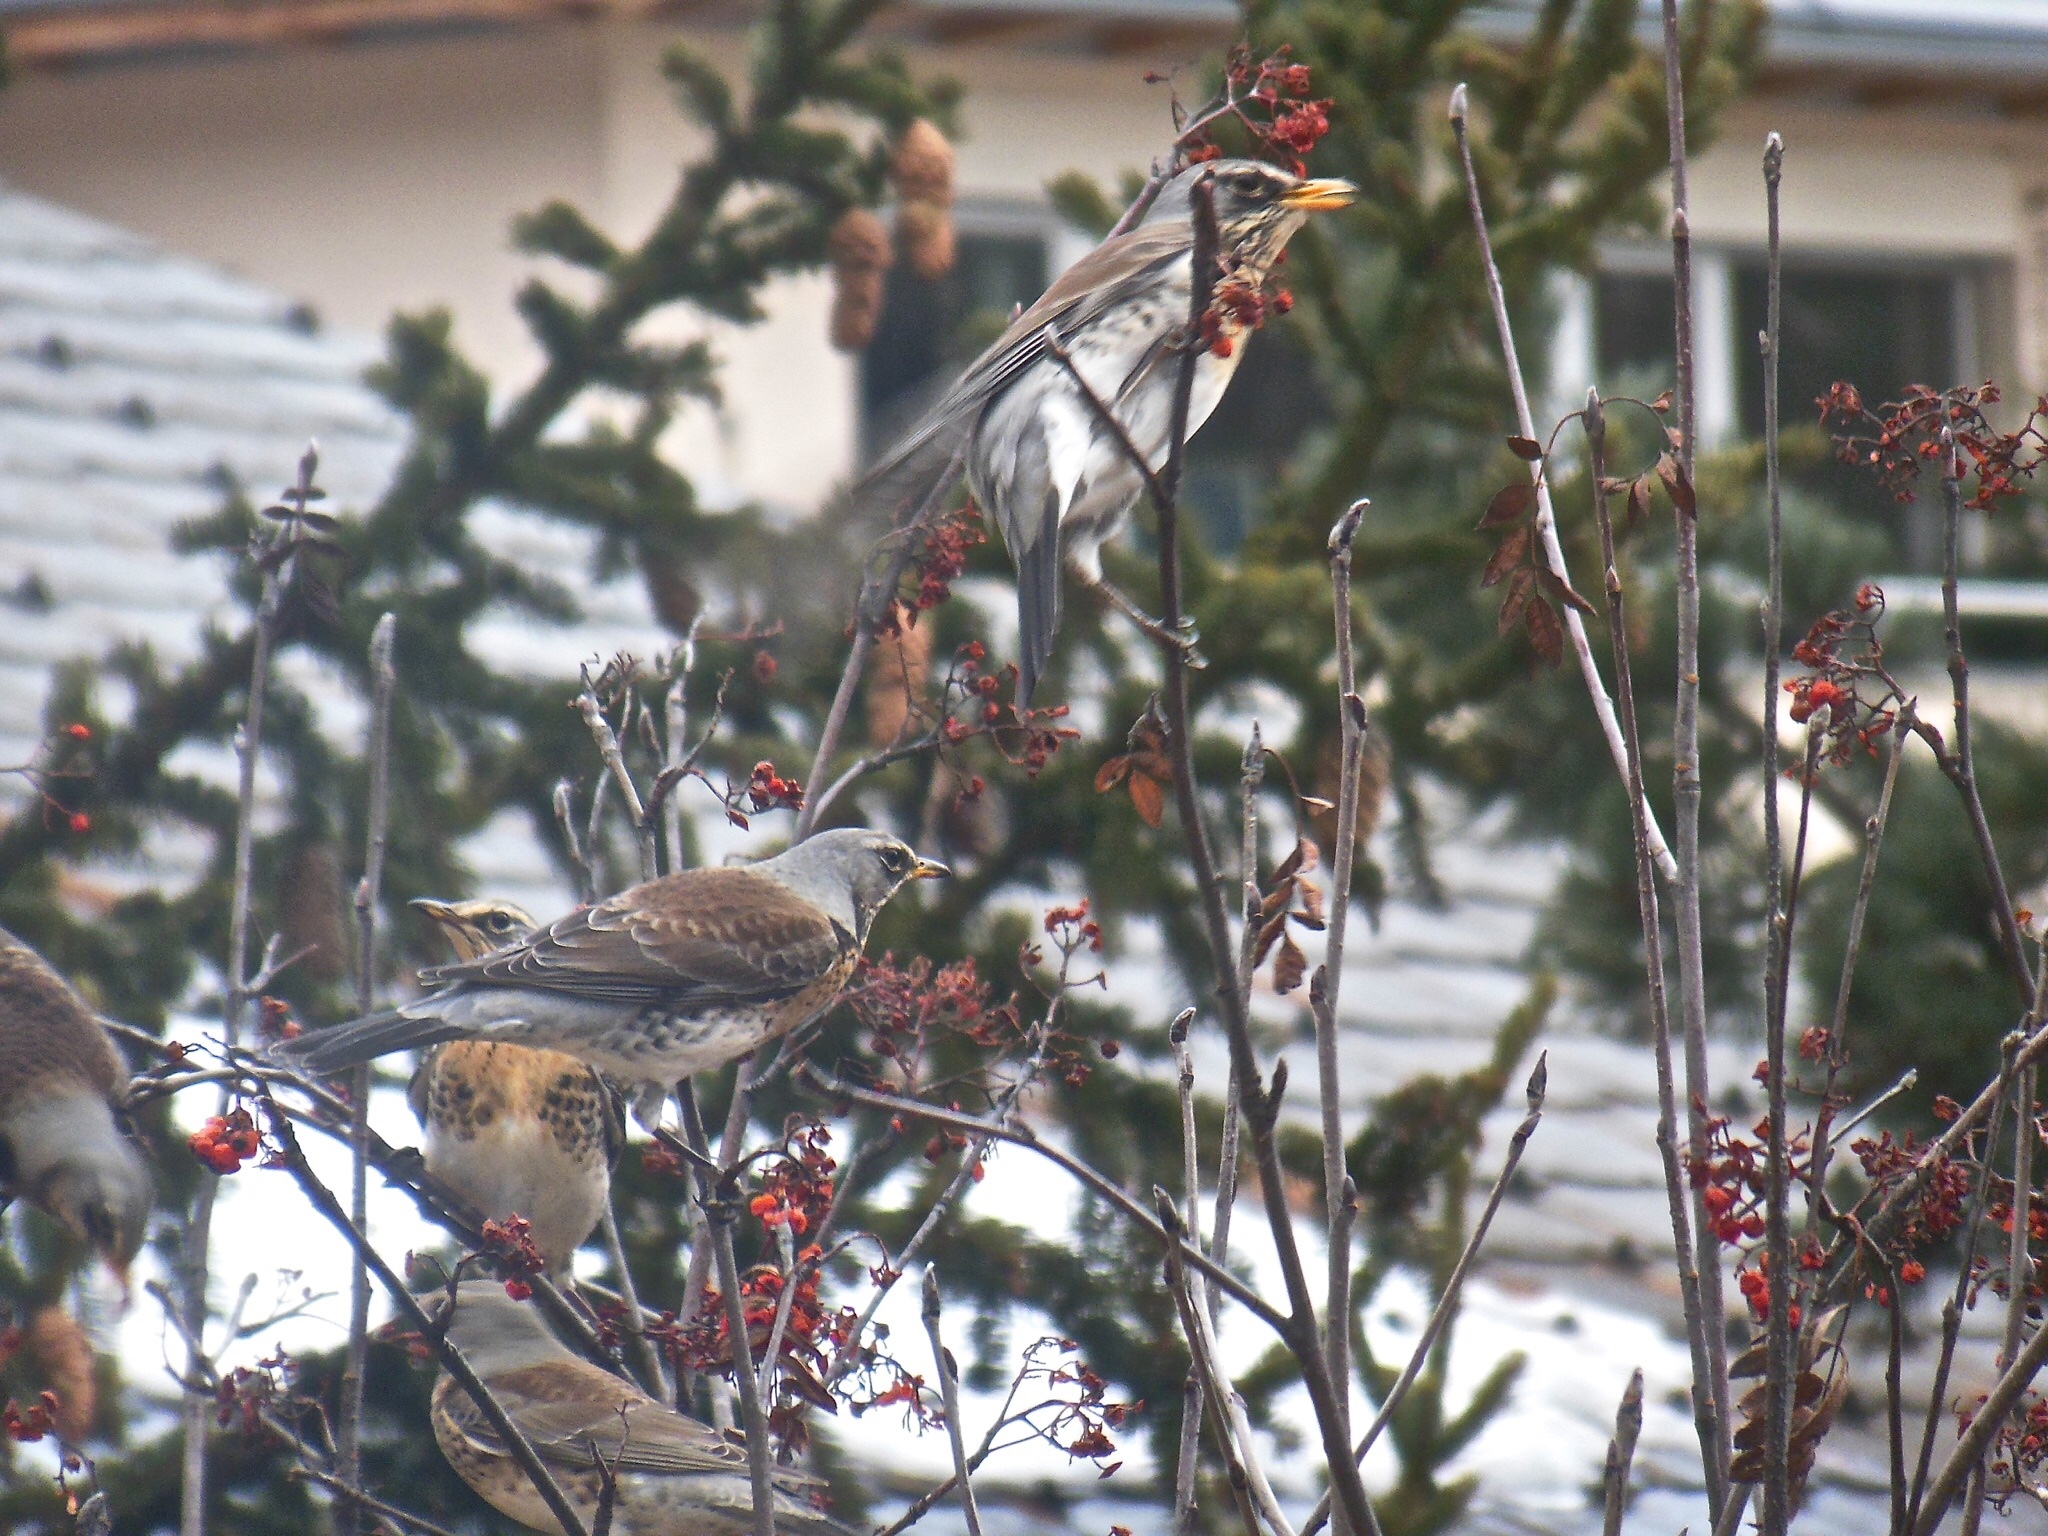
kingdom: Animalia
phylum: Chordata
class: Aves
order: Passeriformes
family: Turdidae
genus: Turdus
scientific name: Turdus pilaris
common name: Fieldfare
